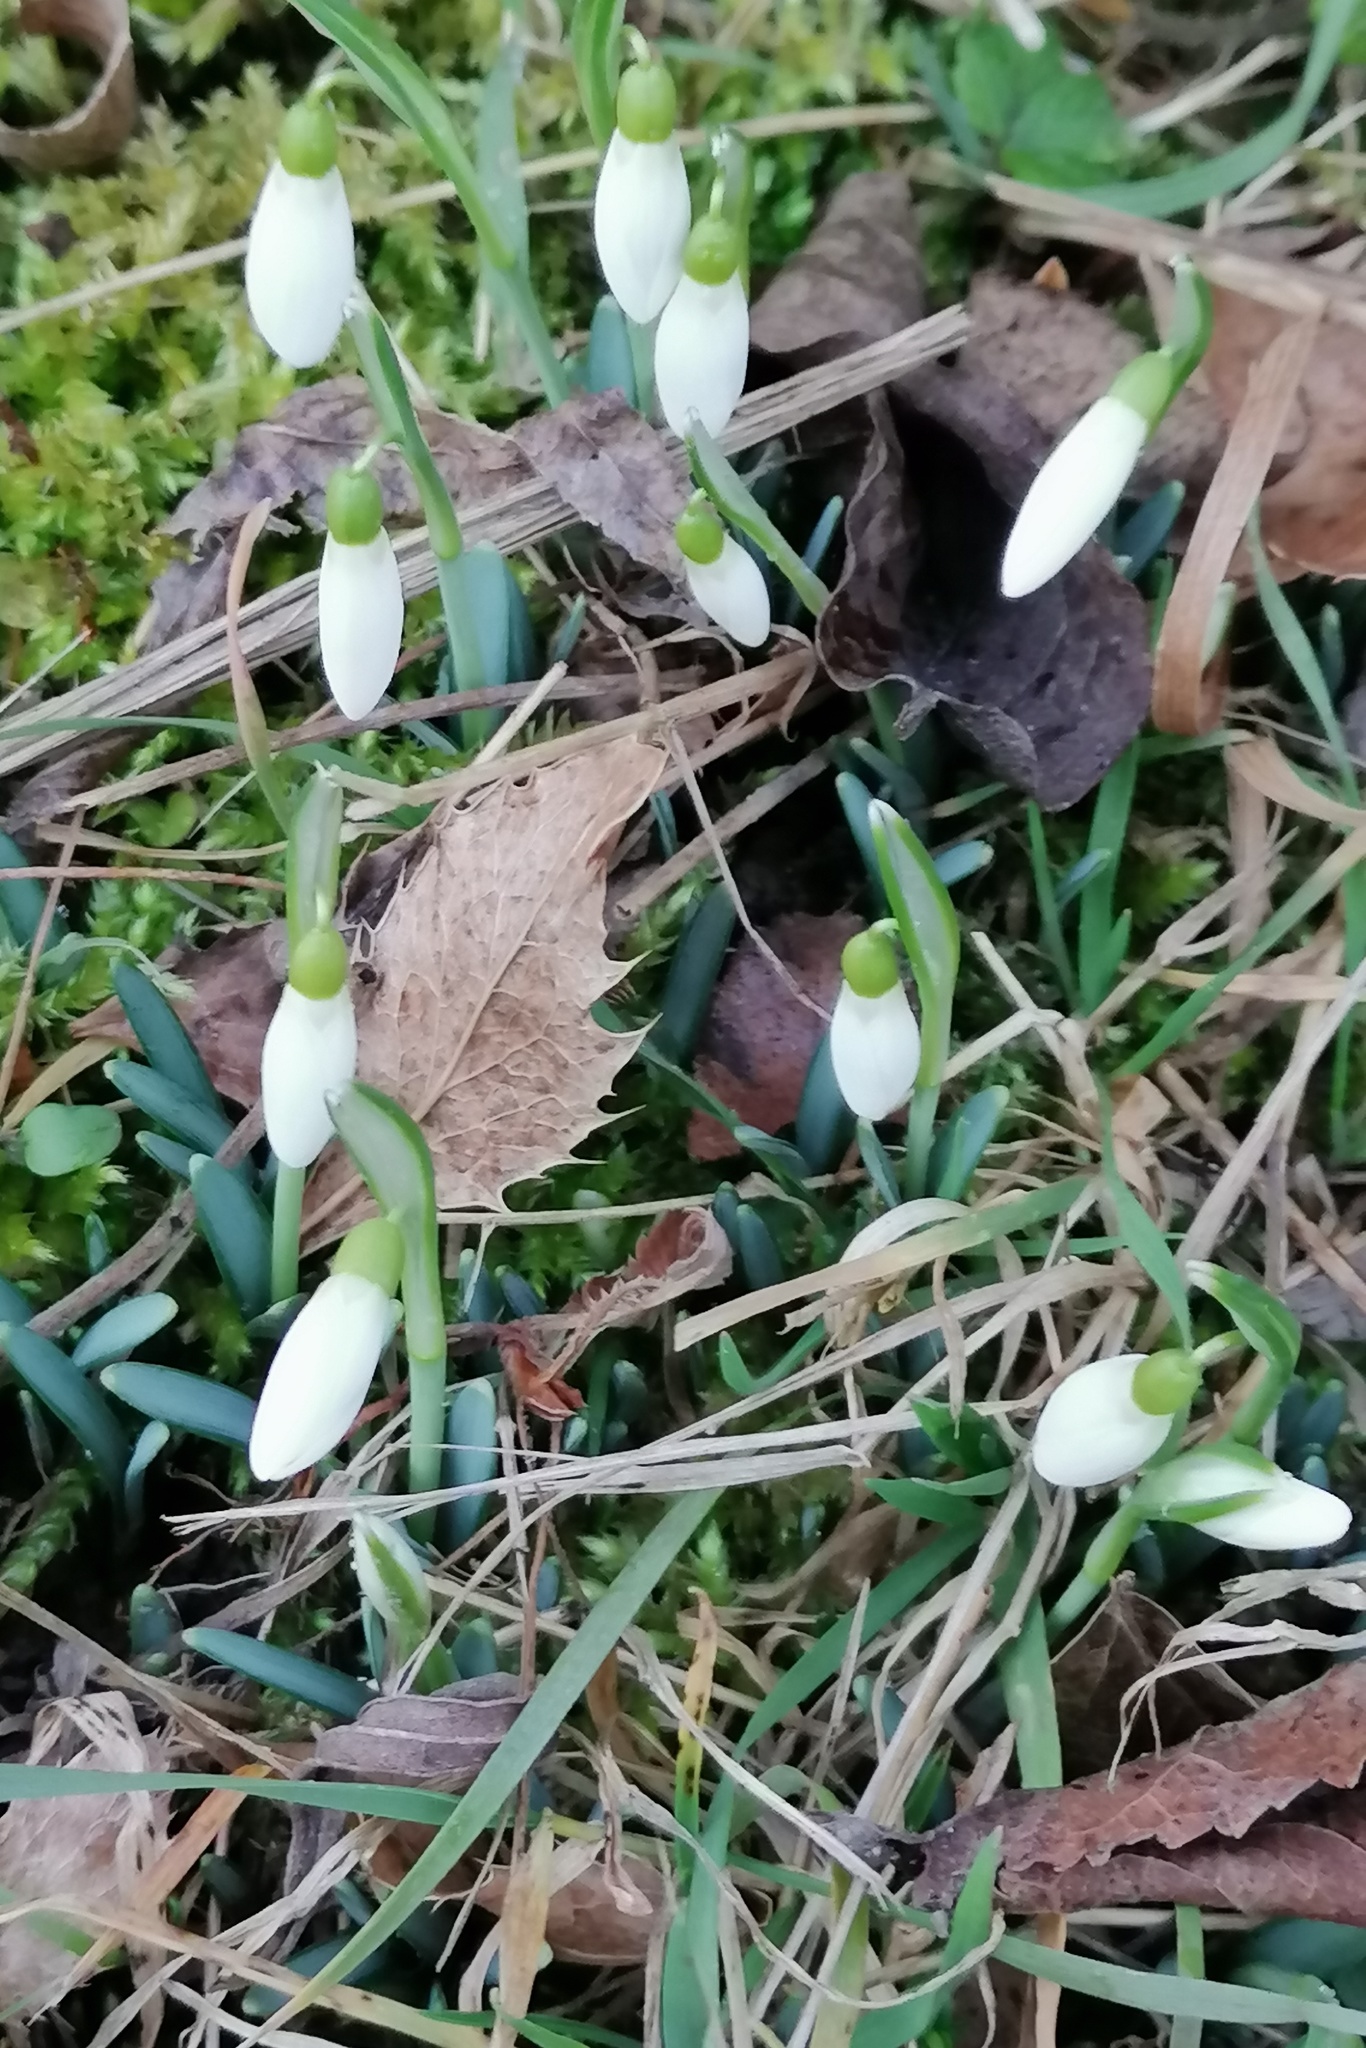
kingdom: Plantae
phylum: Tracheophyta
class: Liliopsida
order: Asparagales
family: Amaryllidaceae
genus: Galanthus
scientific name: Galanthus nivalis
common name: Snowdrop
